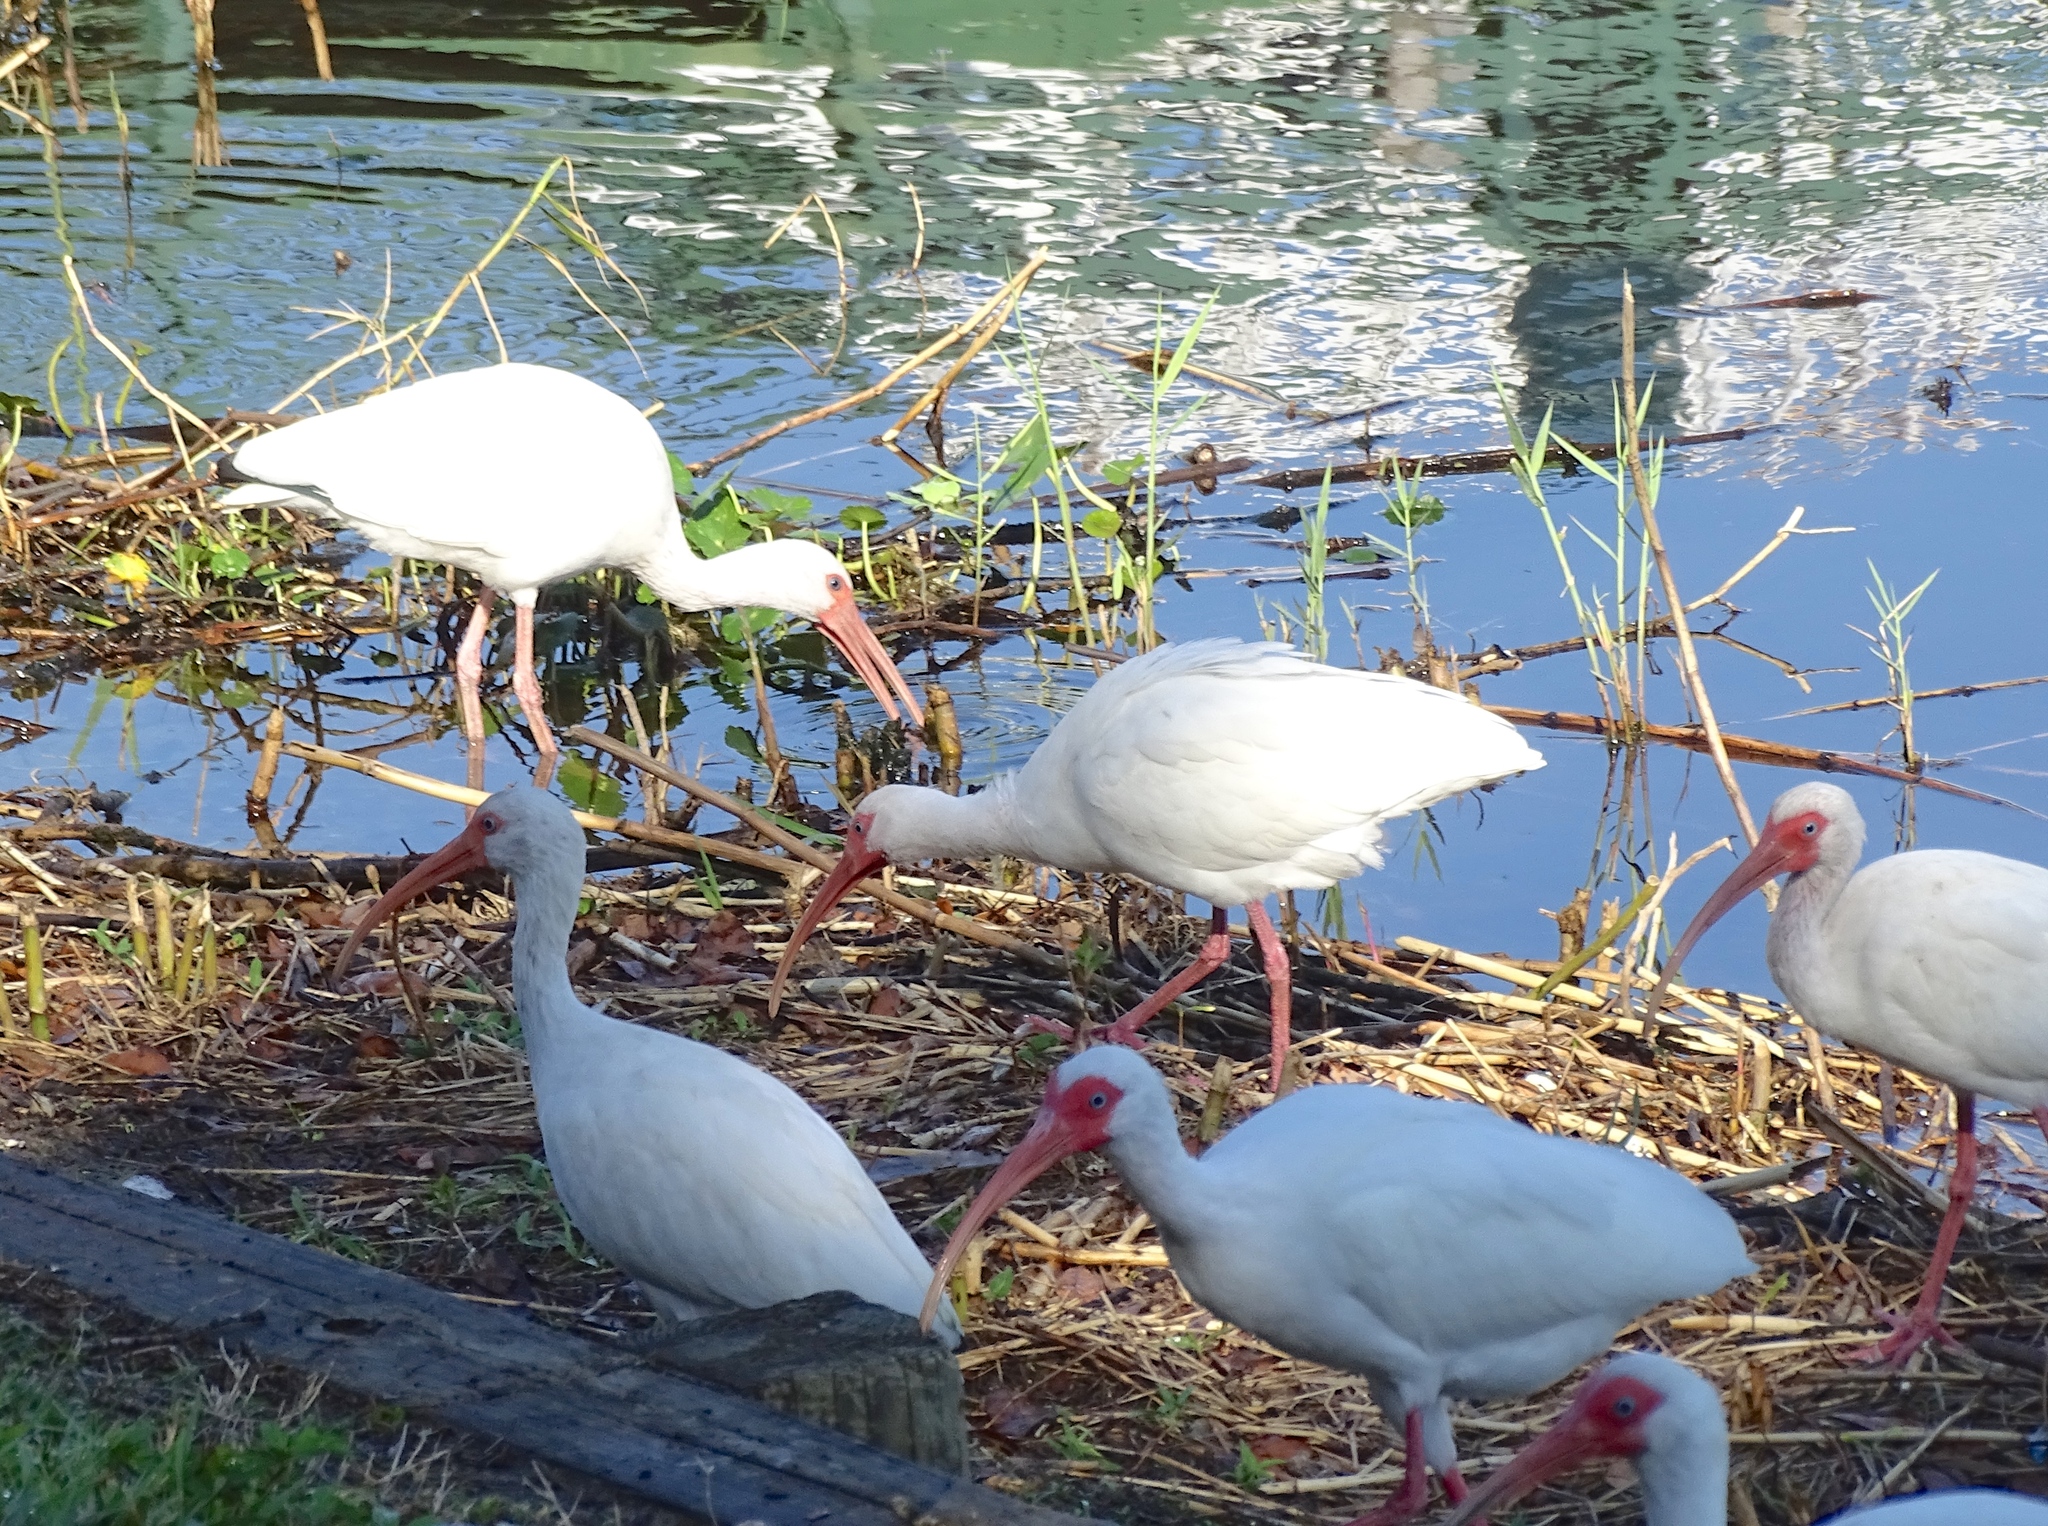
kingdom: Animalia
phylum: Chordata
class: Aves
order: Pelecaniformes
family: Threskiornithidae
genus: Eudocimus
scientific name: Eudocimus albus
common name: White ibis
